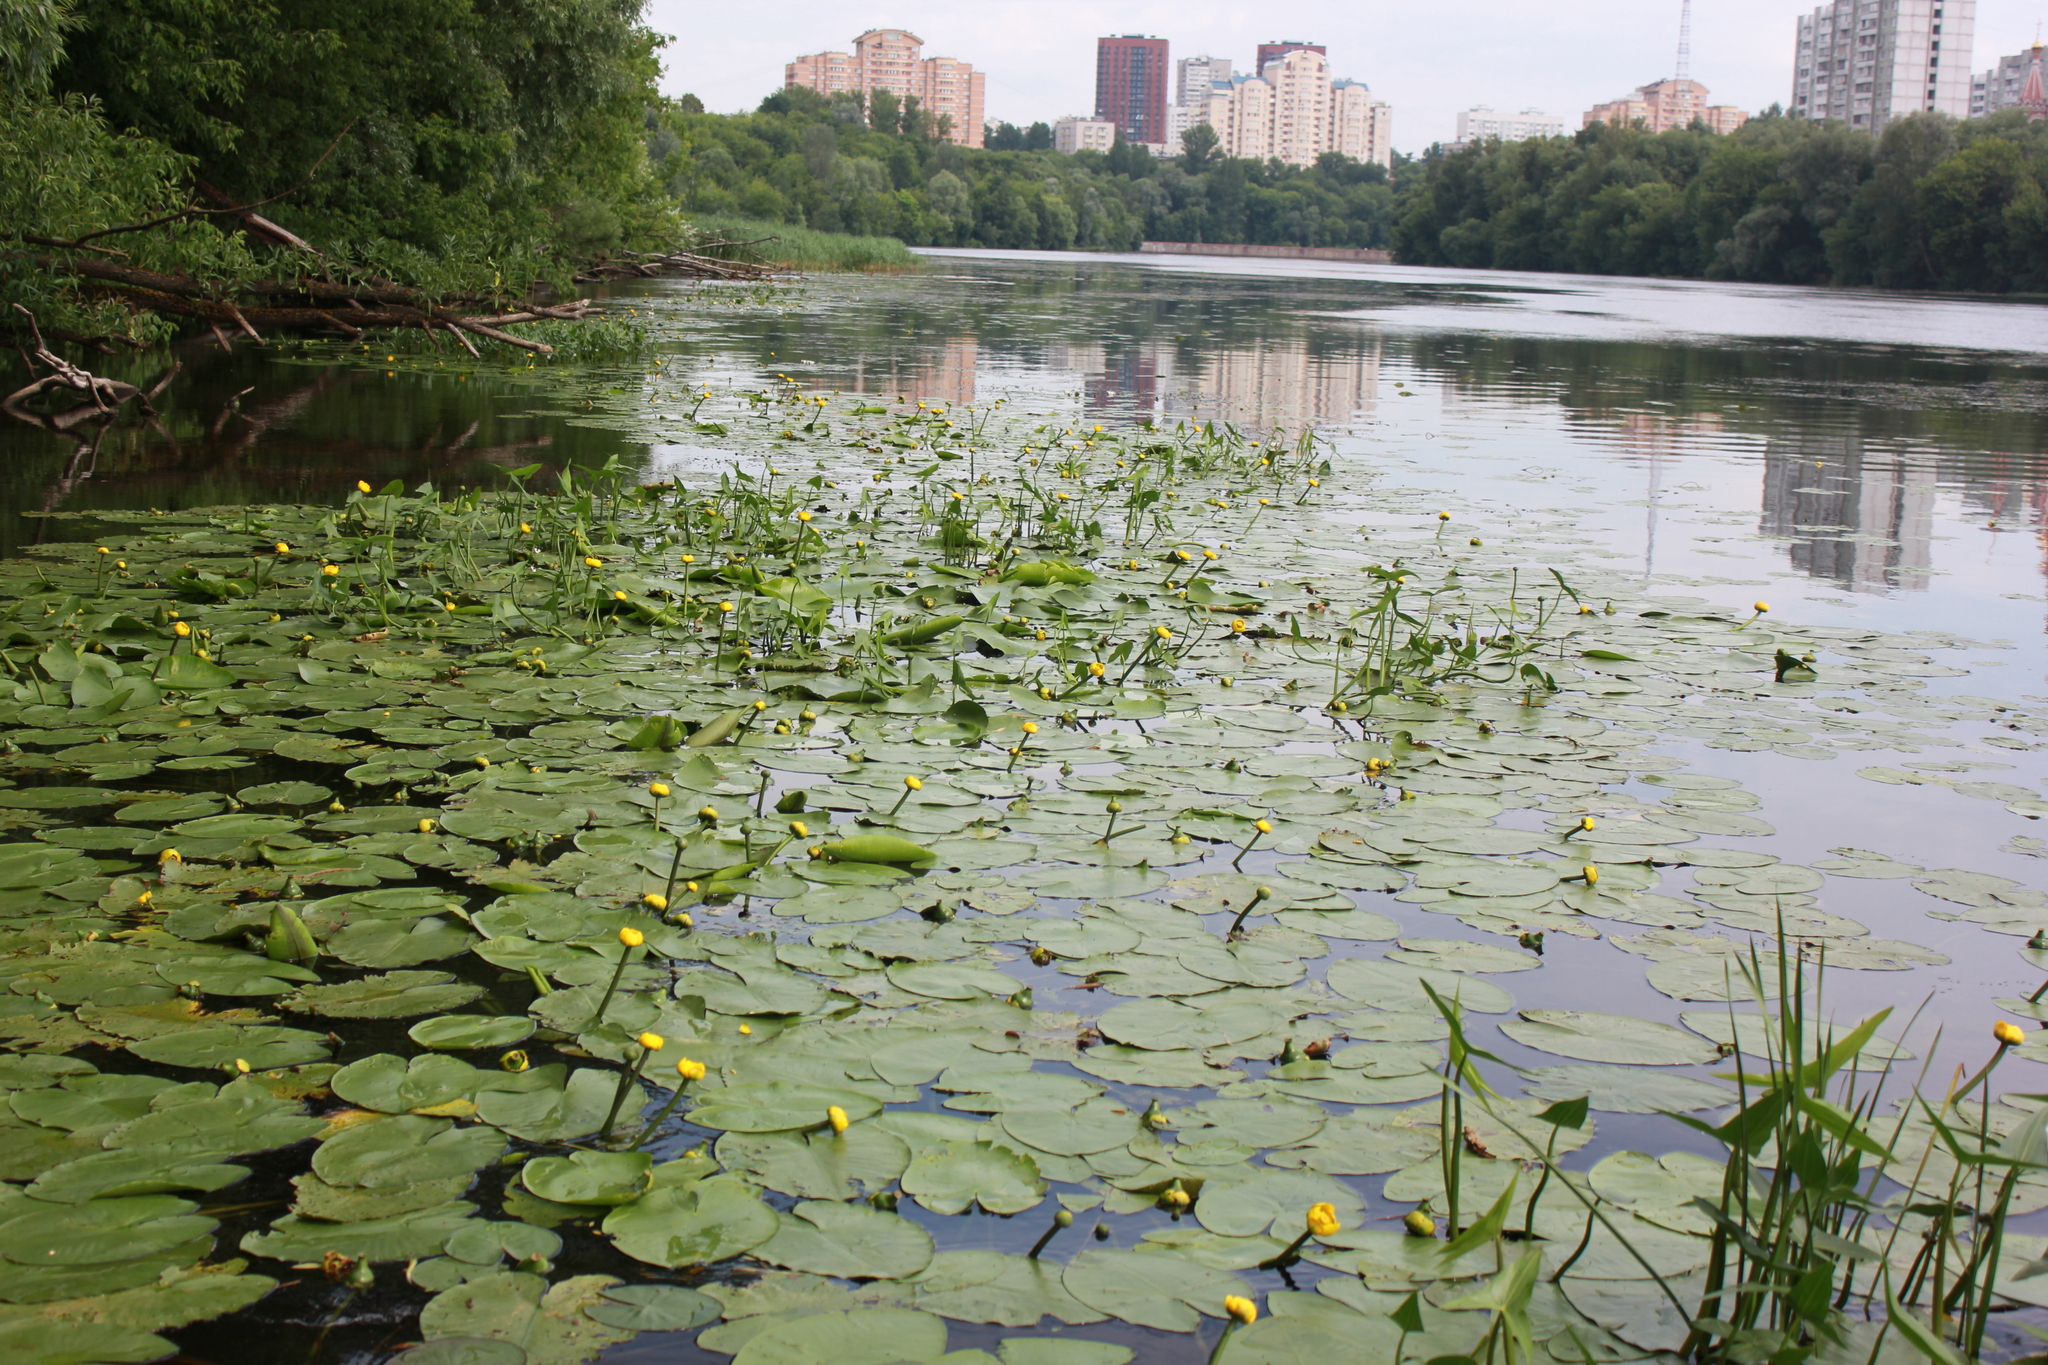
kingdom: Plantae
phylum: Tracheophyta
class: Magnoliopsida
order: Nymphaeales
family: Nymphaeaceae
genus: Nuphar
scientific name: Nuphar lutea
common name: Yellow water-lily
